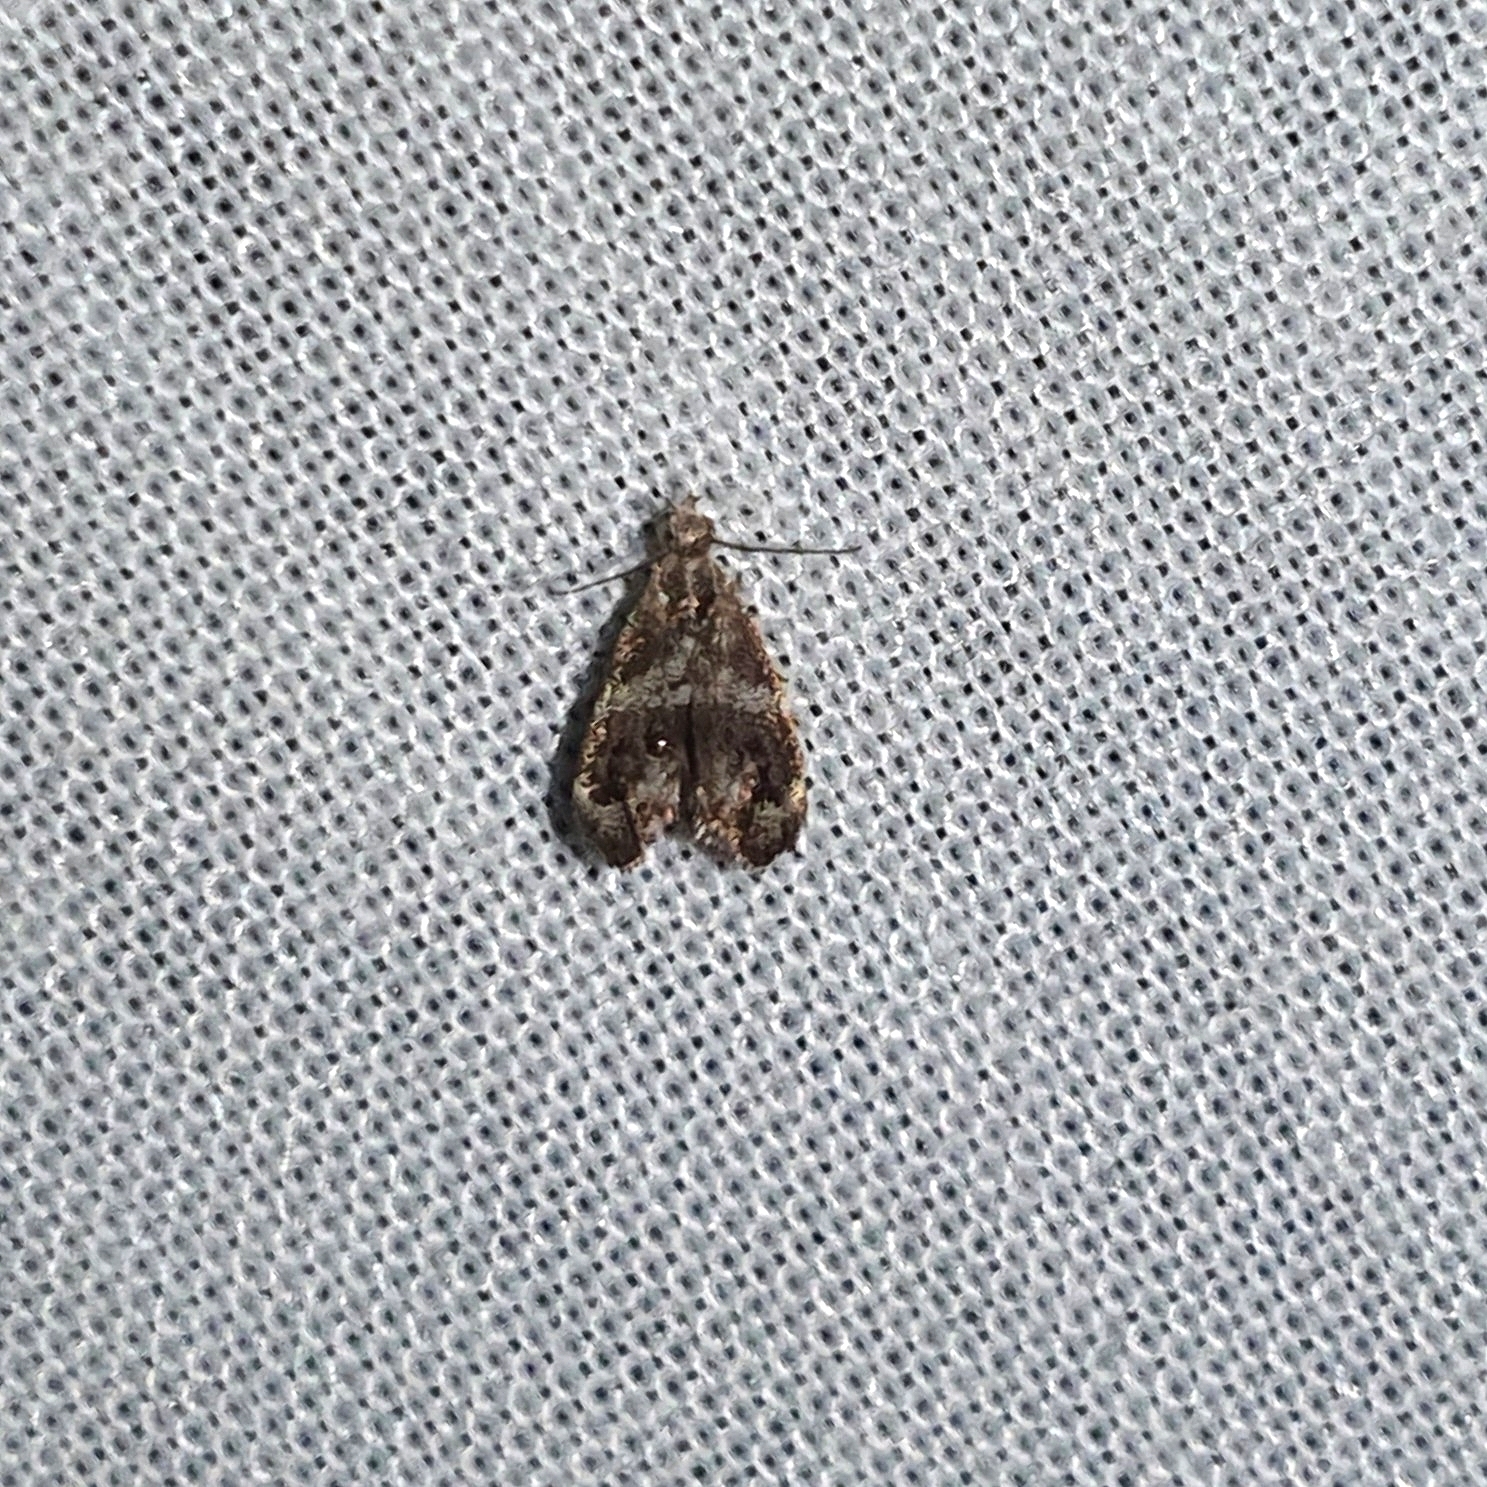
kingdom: Animalia
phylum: Arthropoda
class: Insecta
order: Lepidoptera
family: Choreutidae
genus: Tebenna
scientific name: Tebenna micalis
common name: Vagrant twitcher
